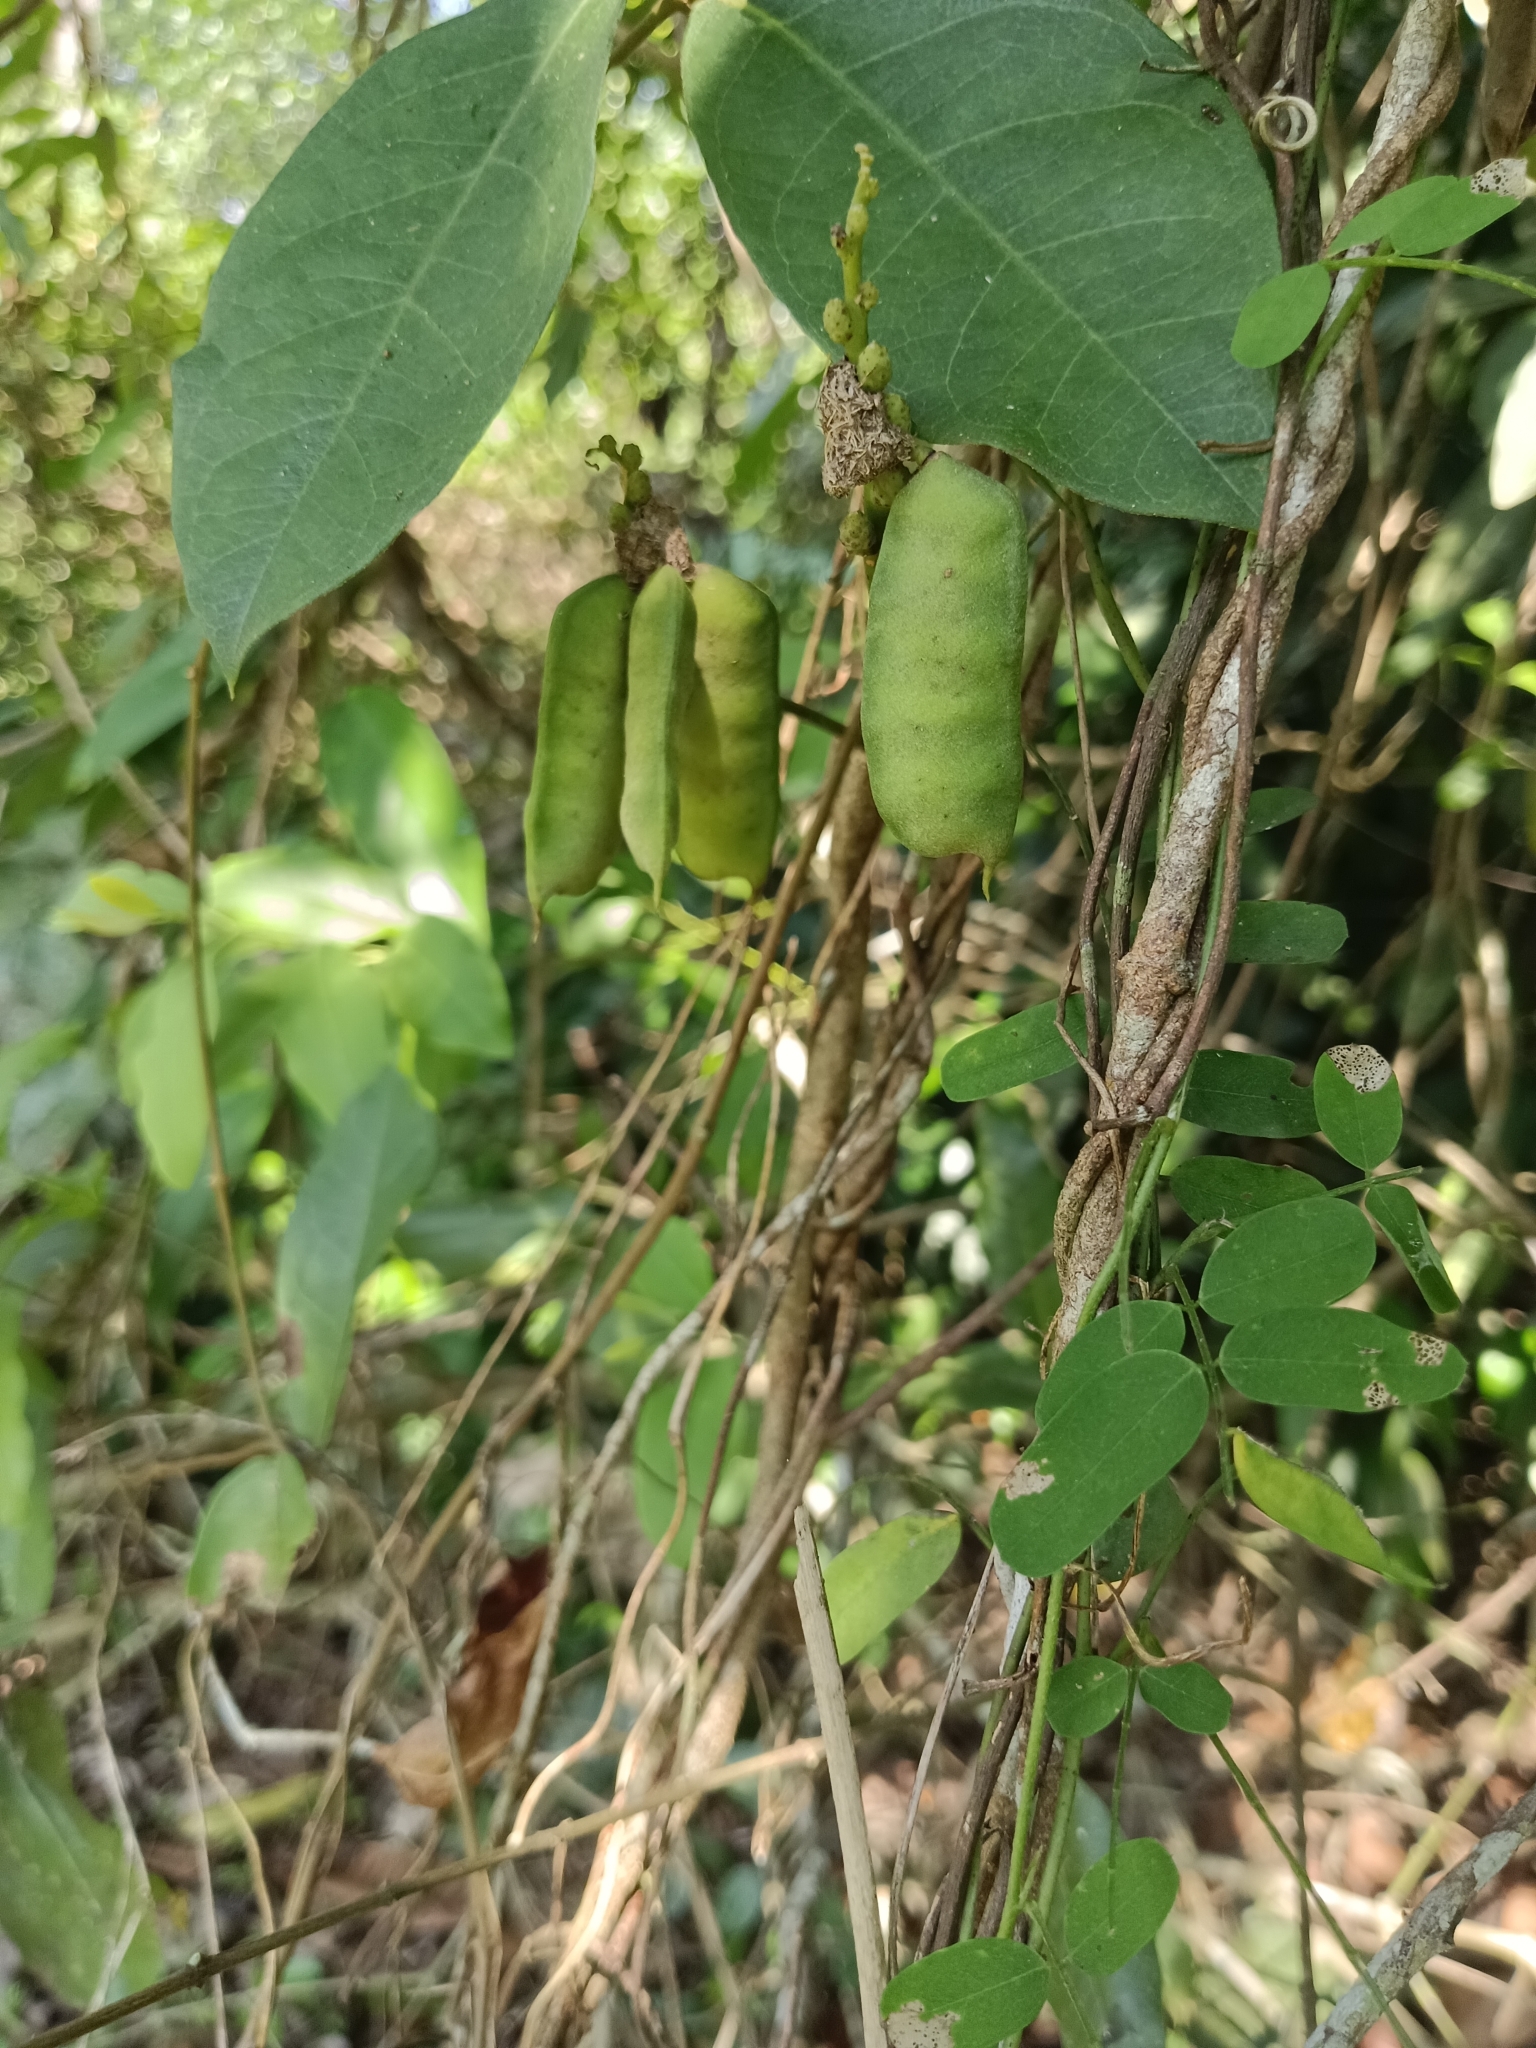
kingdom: Plantae
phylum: Tracheophyta
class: Magnoliopsida
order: Fabales
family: Fabaceae
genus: Abrus
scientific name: Abrus precatorius
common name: Rosarypea
